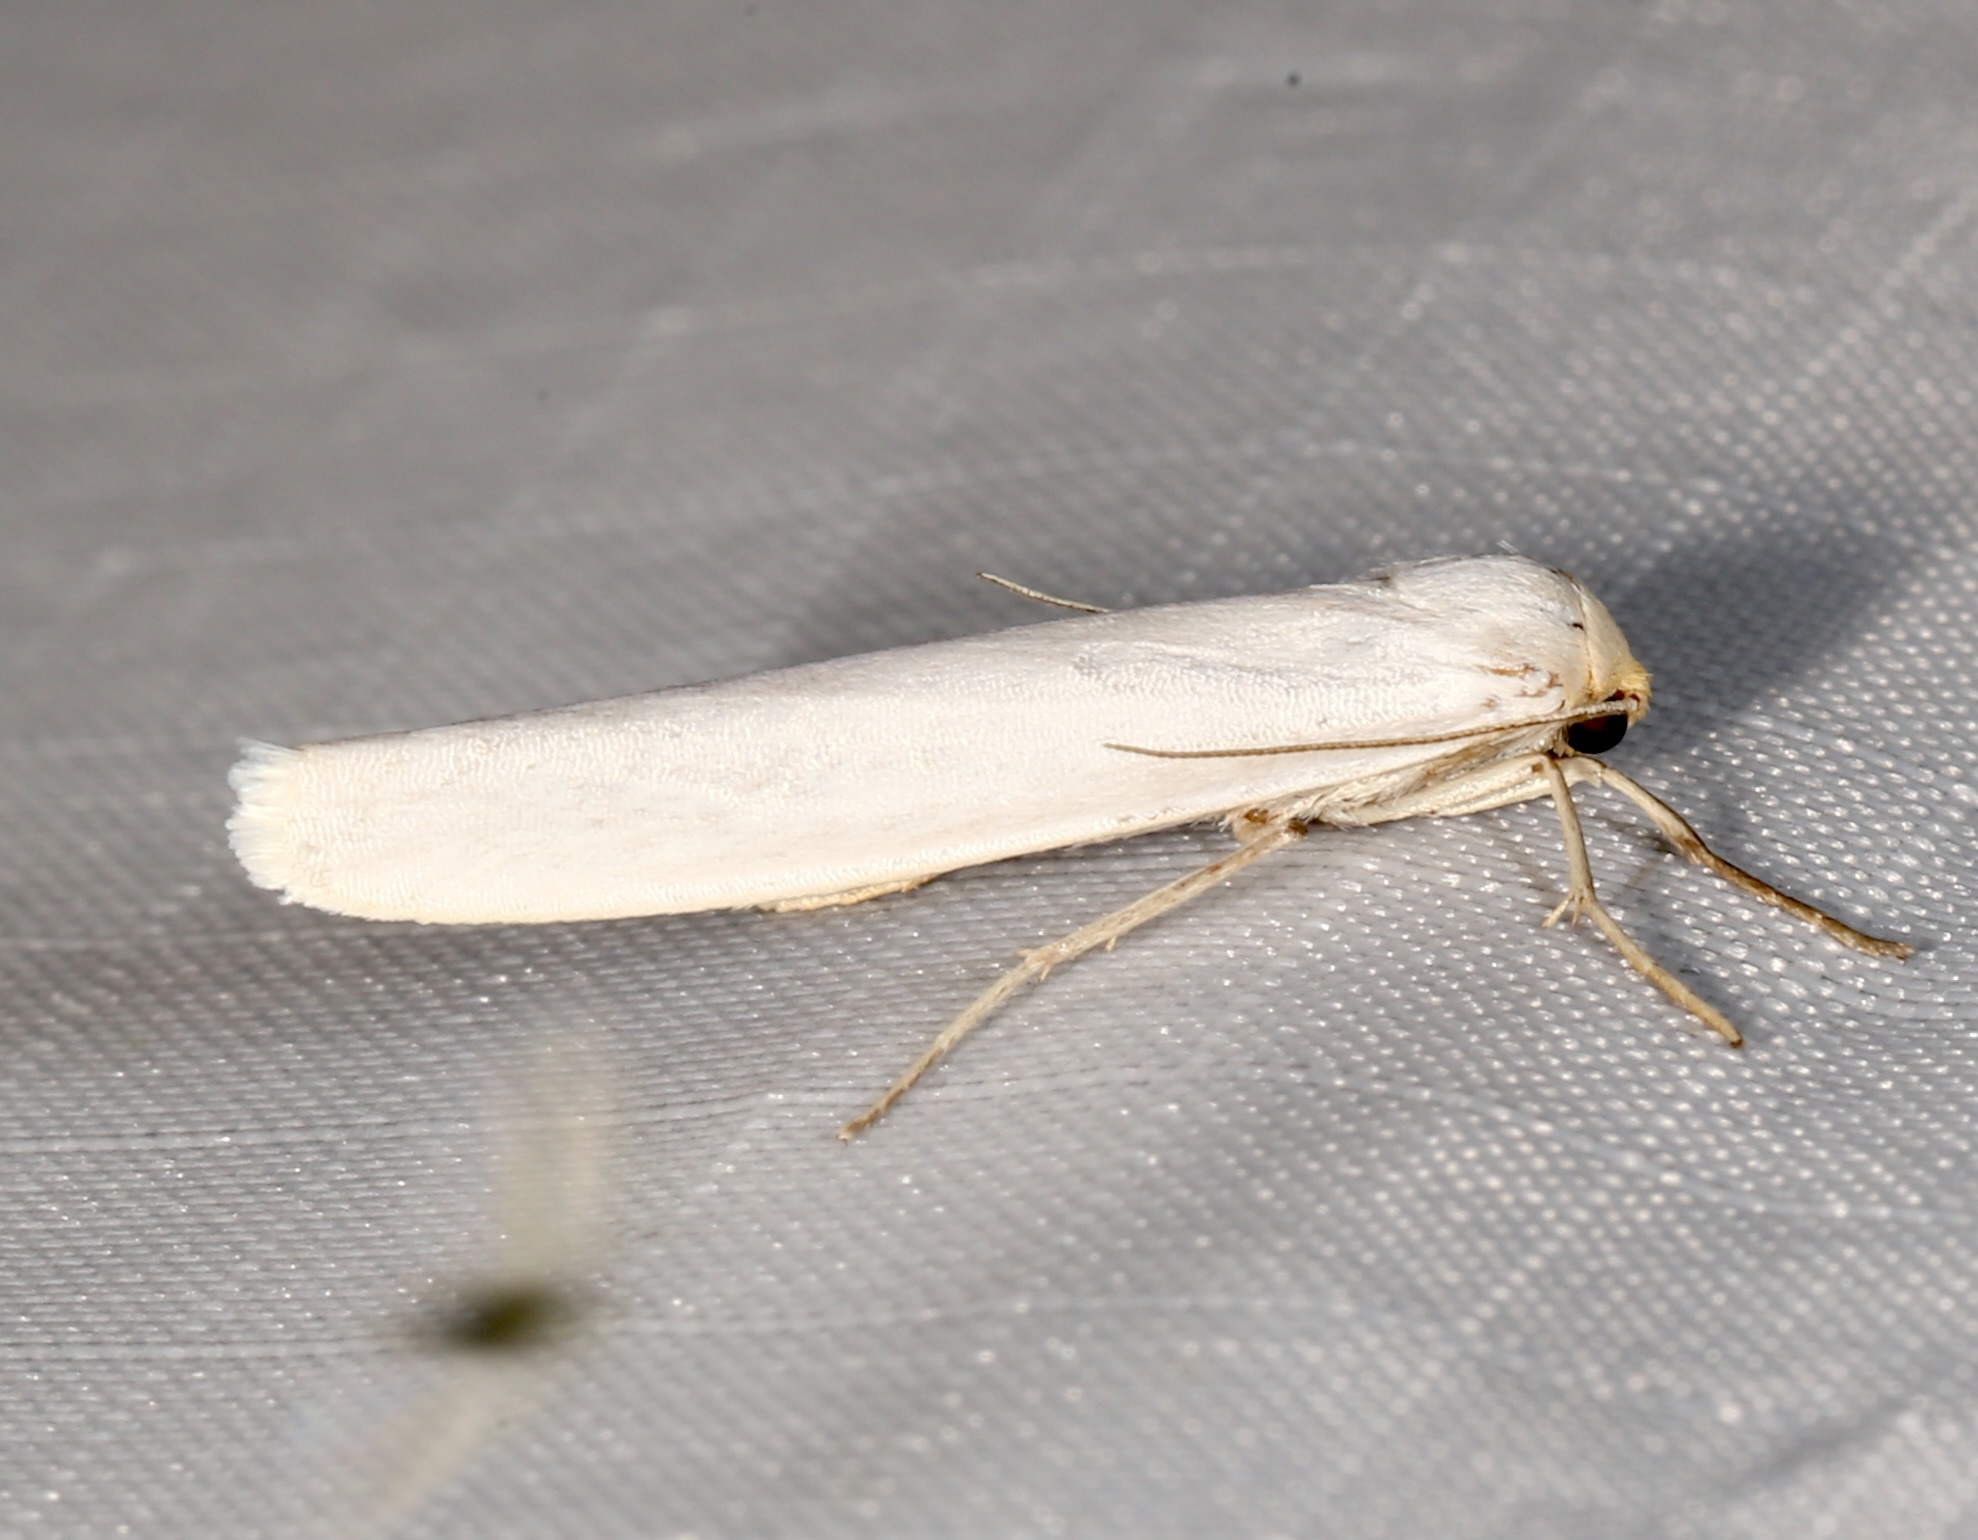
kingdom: Animalia
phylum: Arthropoda
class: Insecta
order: Lepidoptera
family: Erebidae
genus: Crambidia
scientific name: Crambidia cephalica
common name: Yellow-headed lichen moth
